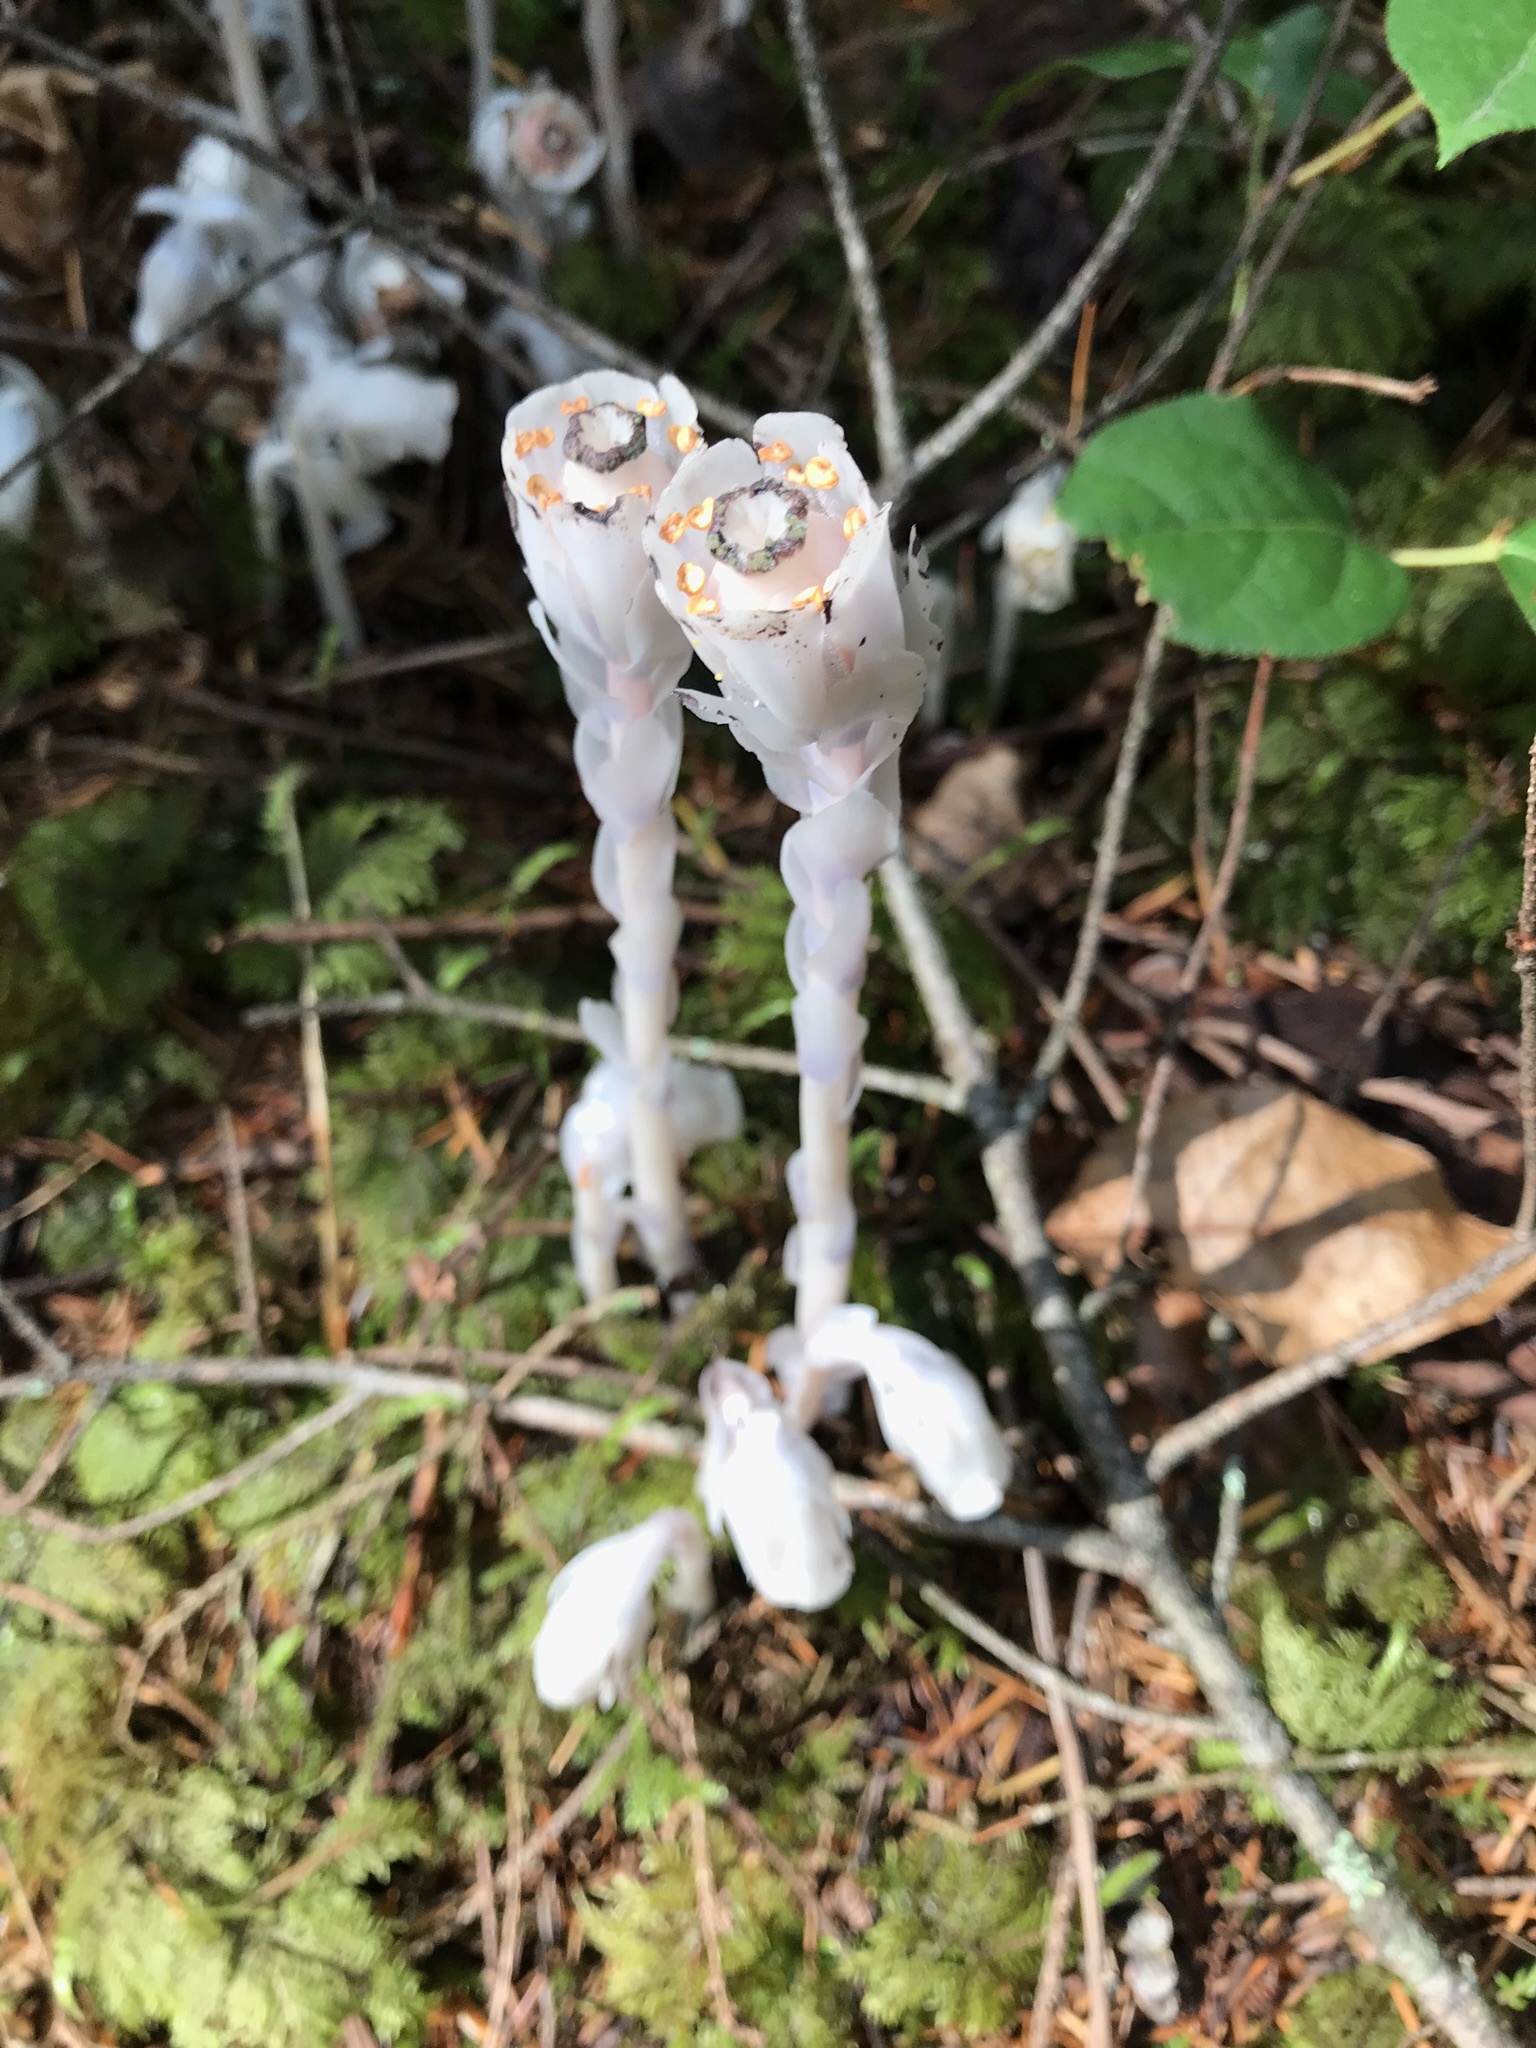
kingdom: Plantae
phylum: Tracheophyta
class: Magnoliopsida
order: Ericales
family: Ericaceae
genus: Monotropa
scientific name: Monotropa uniflora
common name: Convulsion root
